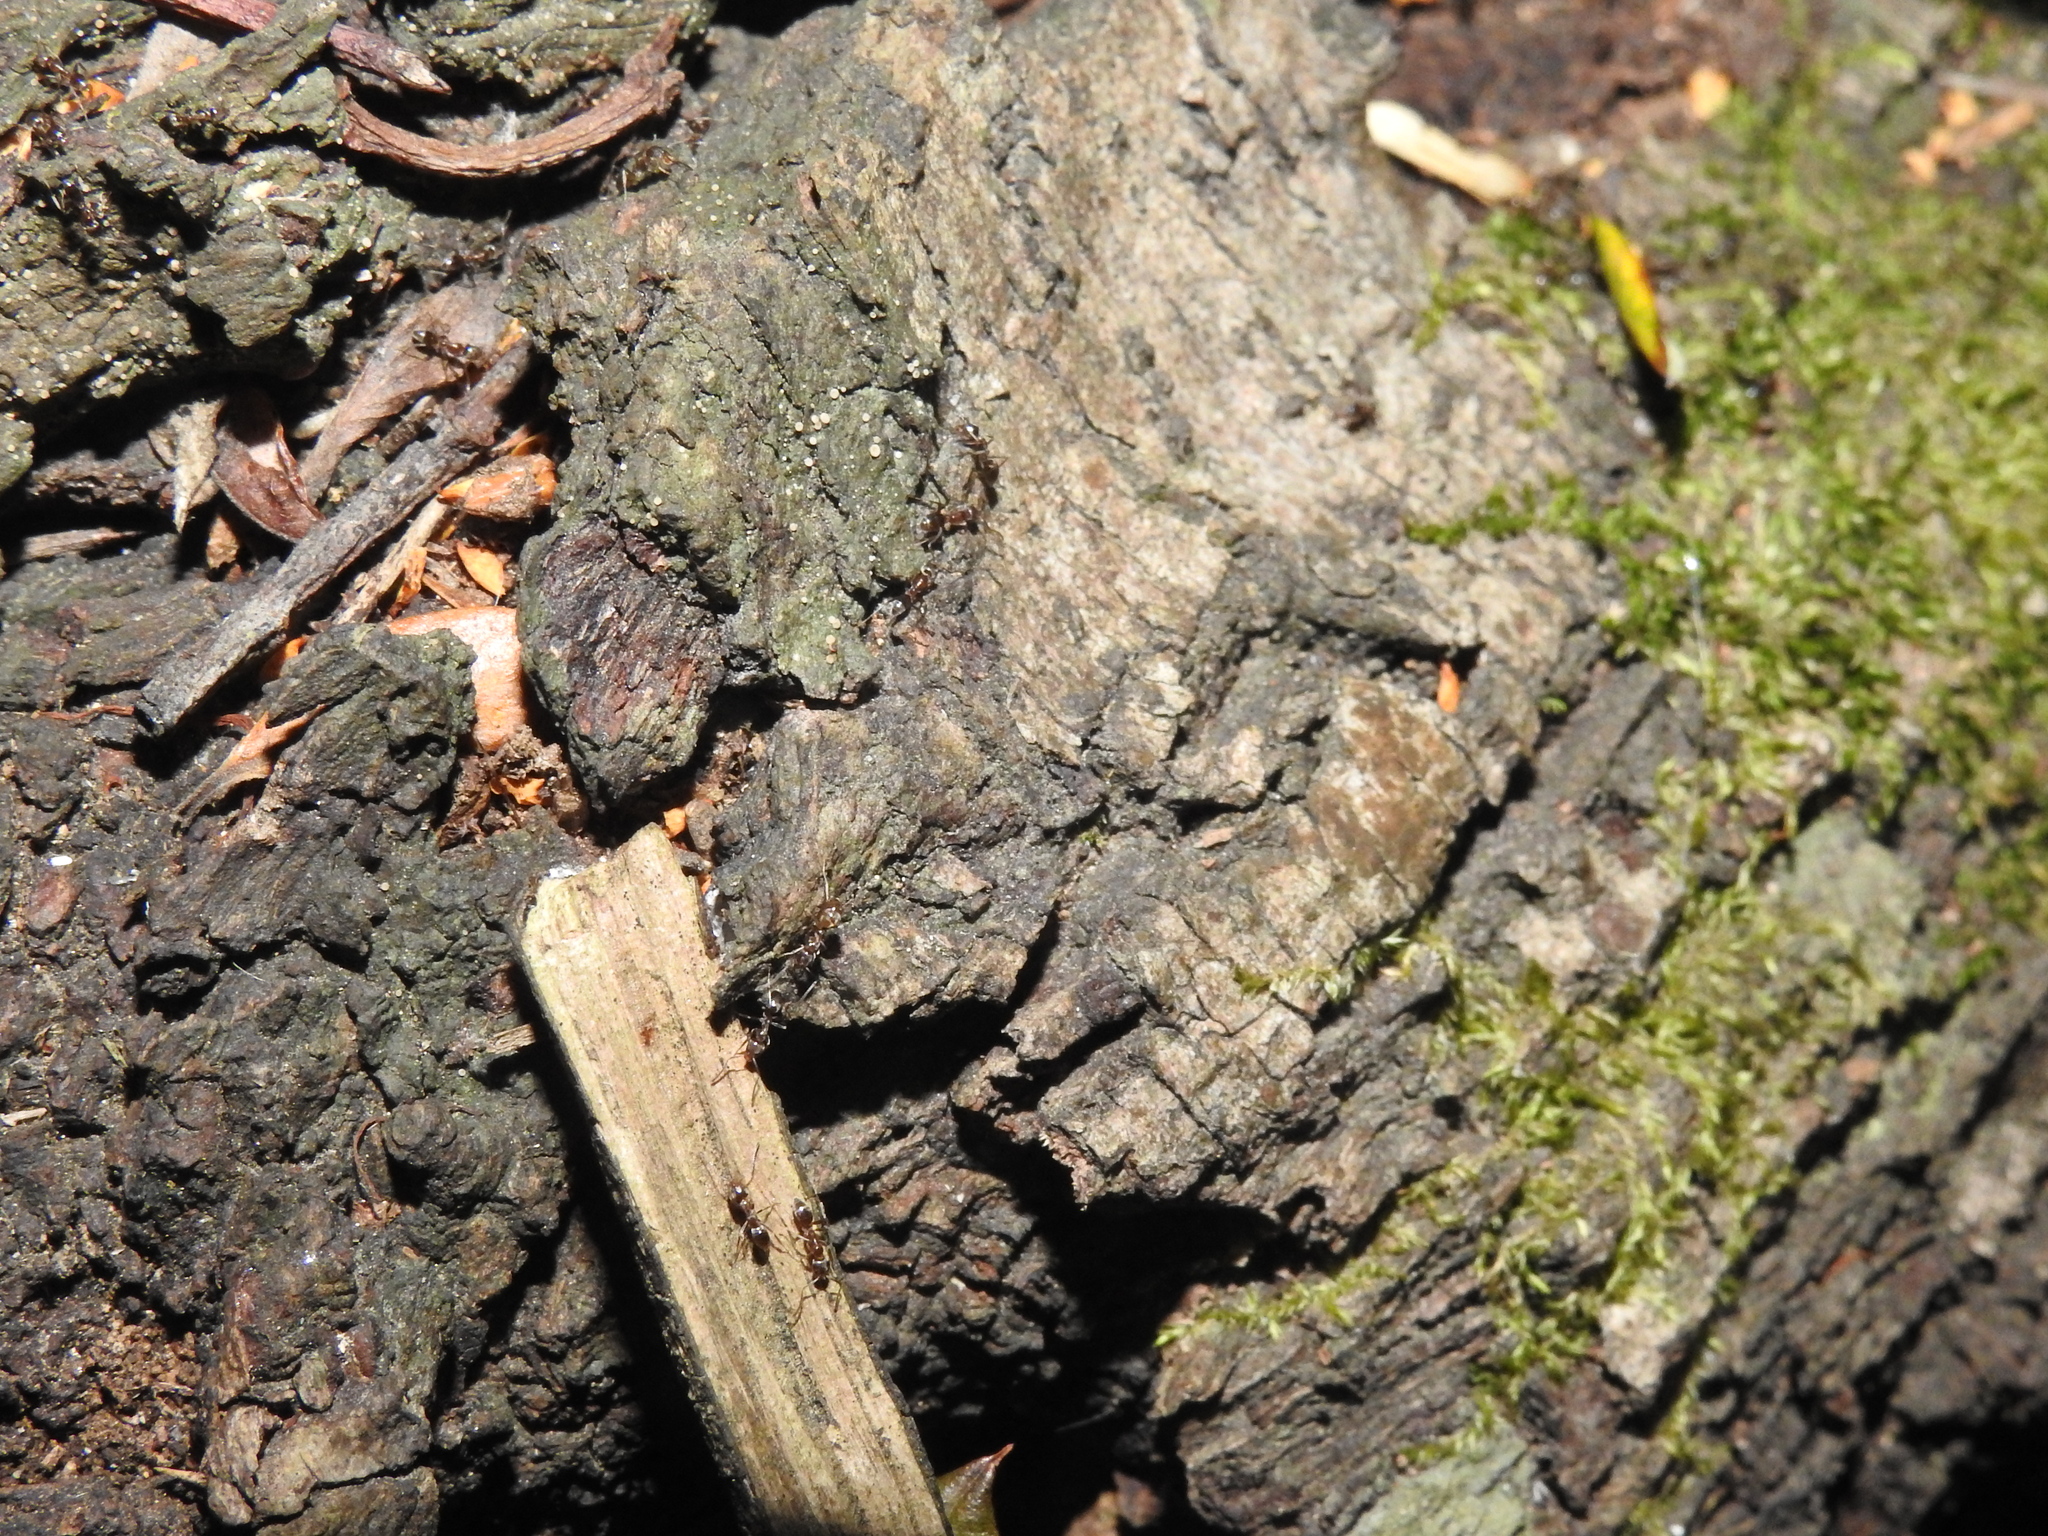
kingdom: Animalia
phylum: Arthropoda
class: Insecta
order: Hymenoptera
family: Formicidae
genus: Linepithema
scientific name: Linepithema humile
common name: Argentine ant
